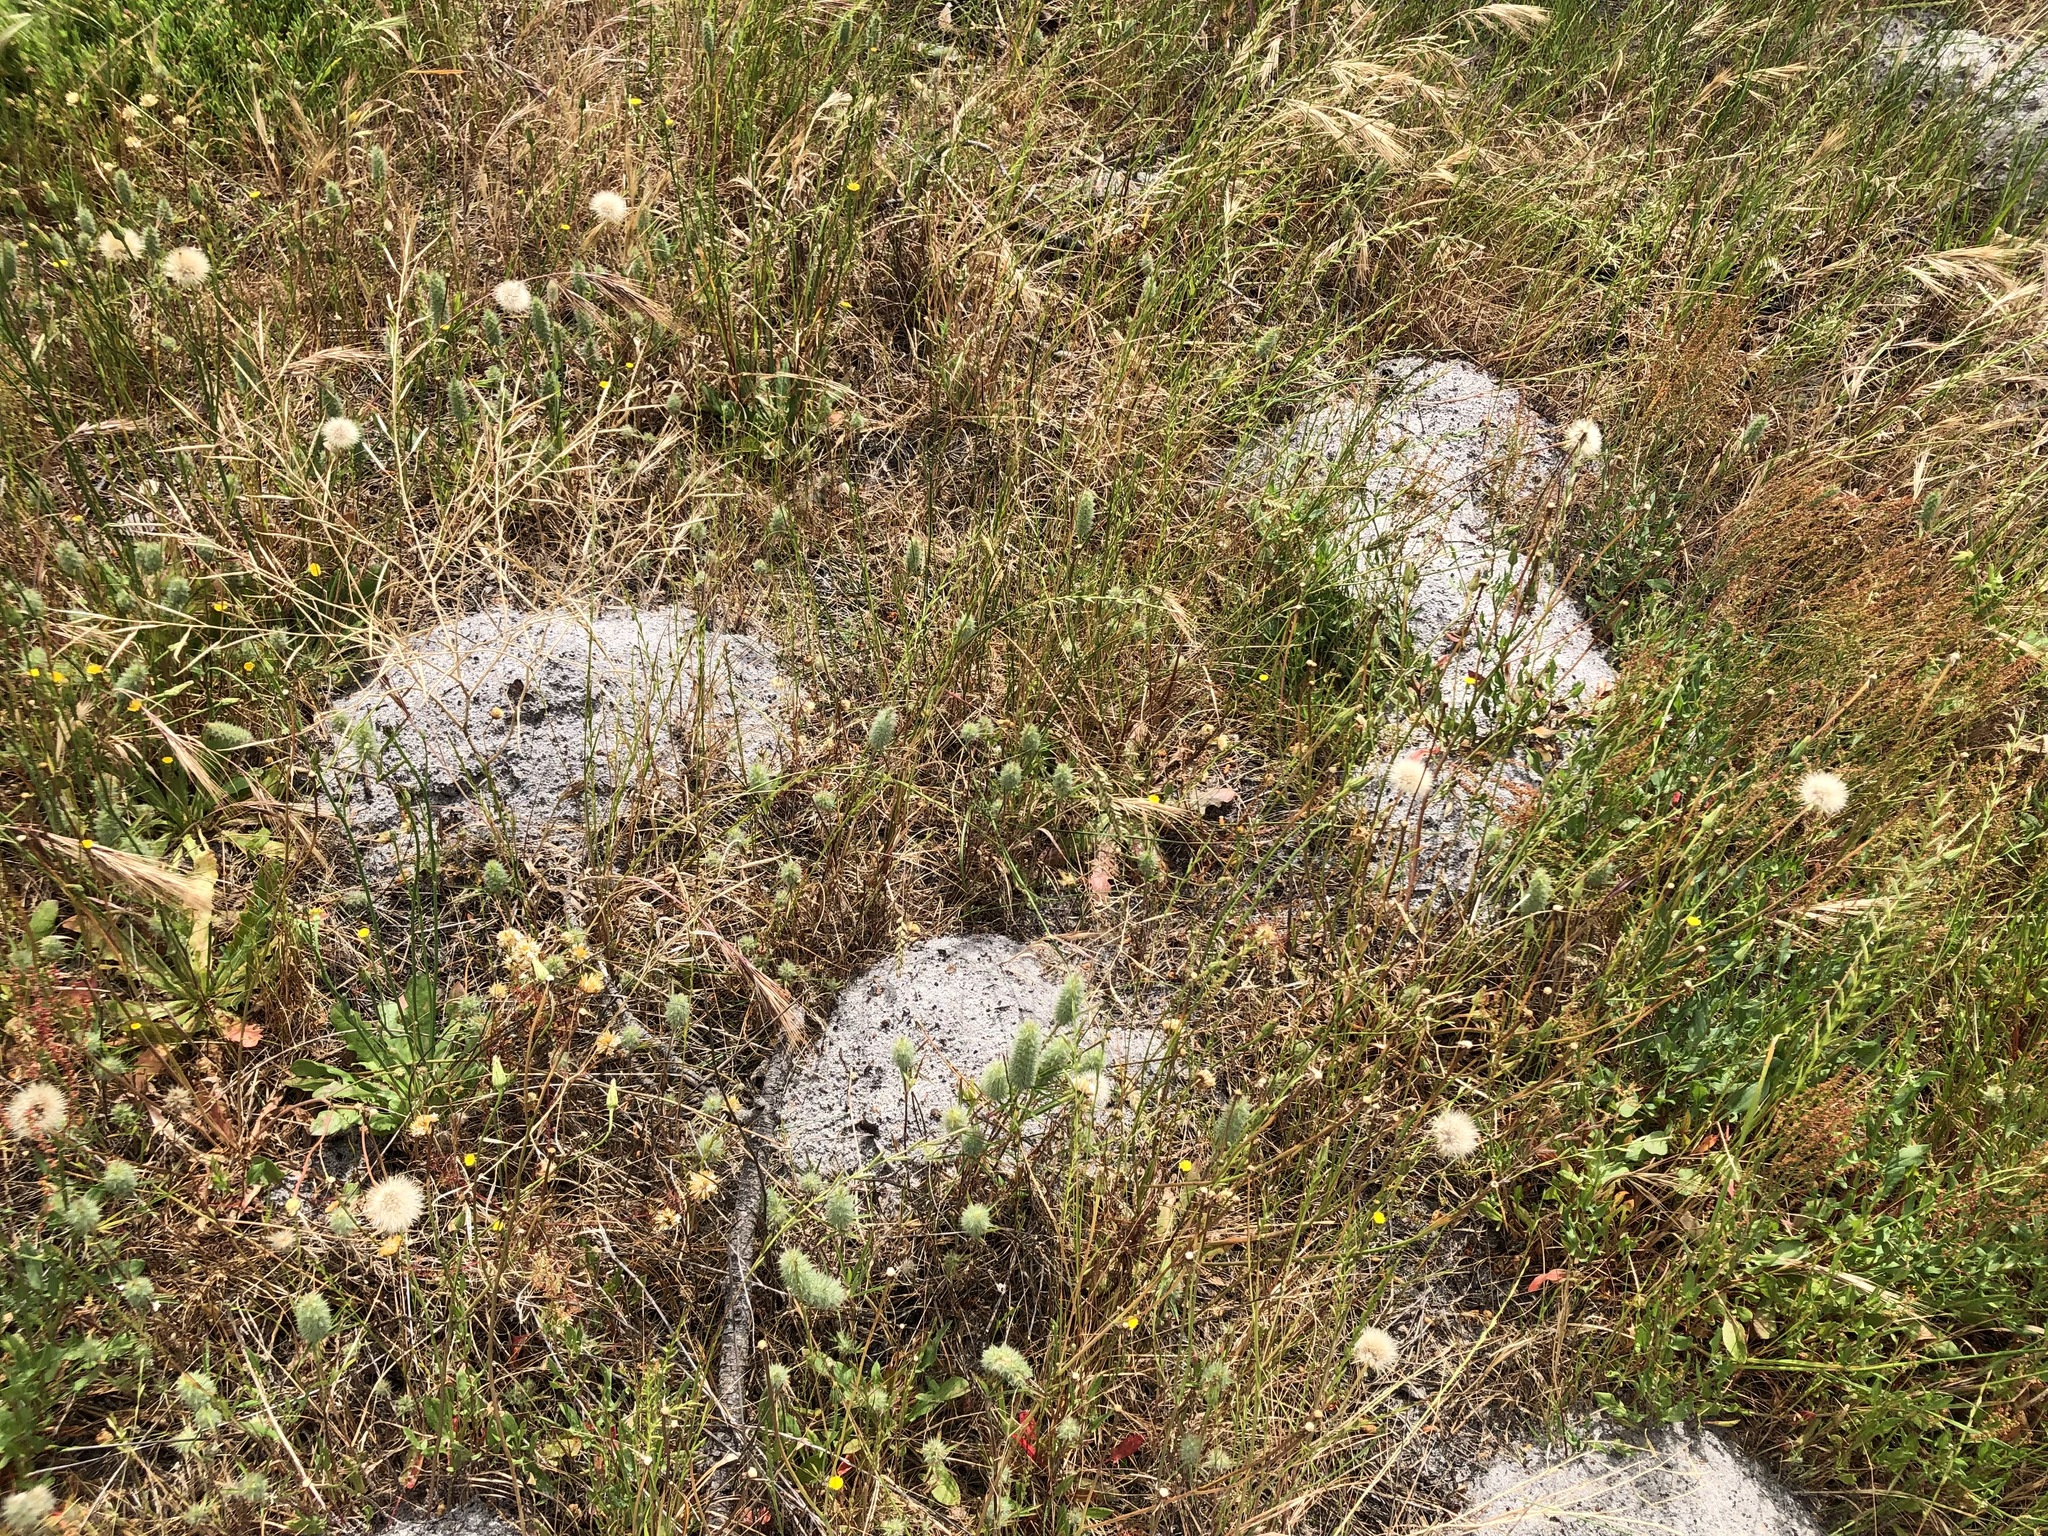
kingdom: Animalia
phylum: Chordata
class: Mammalia
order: Rodentia
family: Bathyergidae
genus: Bathyergus
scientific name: Bathyergus suillus
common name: Cape dune mole rat
